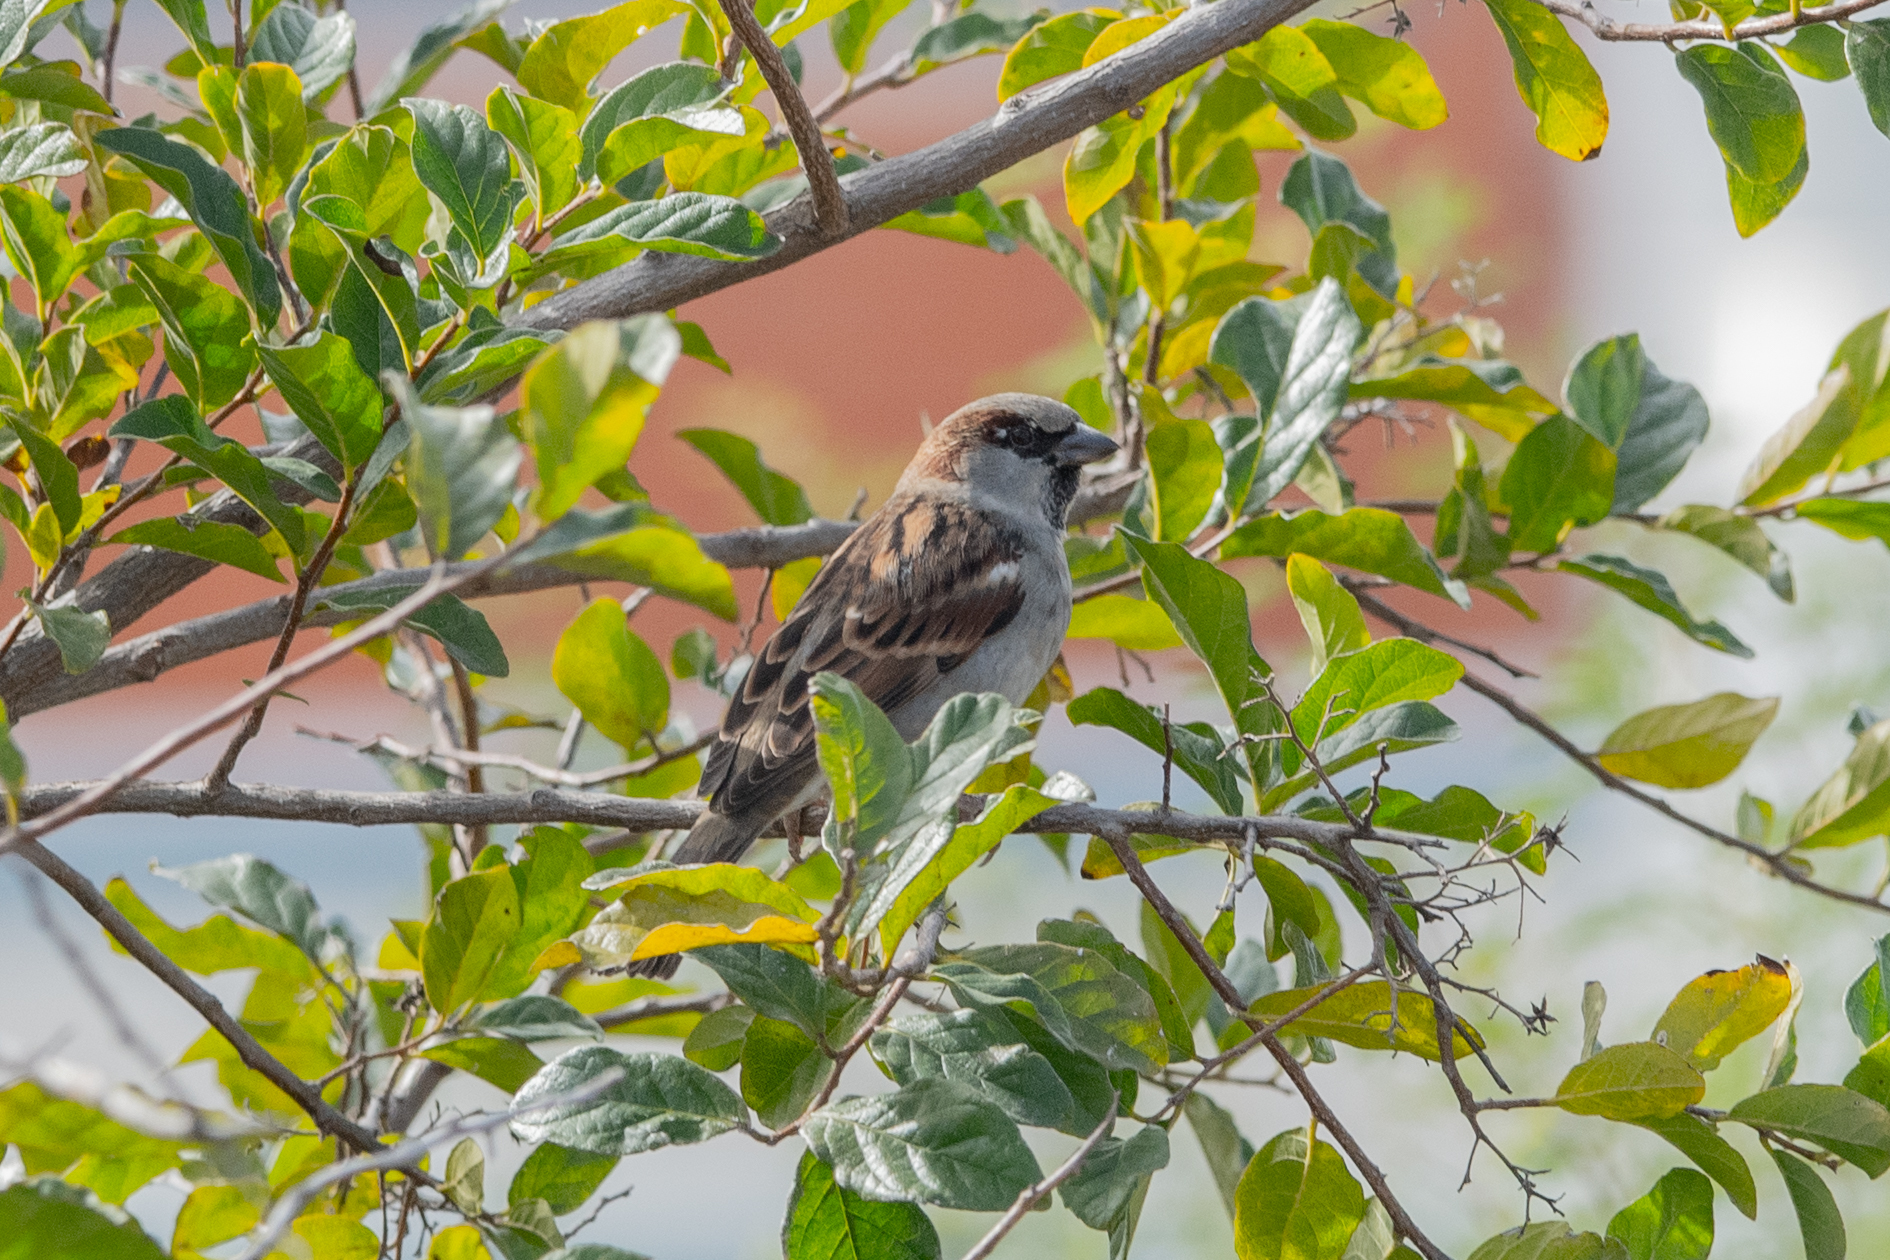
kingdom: Animalia
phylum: Chordata
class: Aves
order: Passeriformes
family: Passeridae
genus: Passer
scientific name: Passer domesticus
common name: House sparrow
